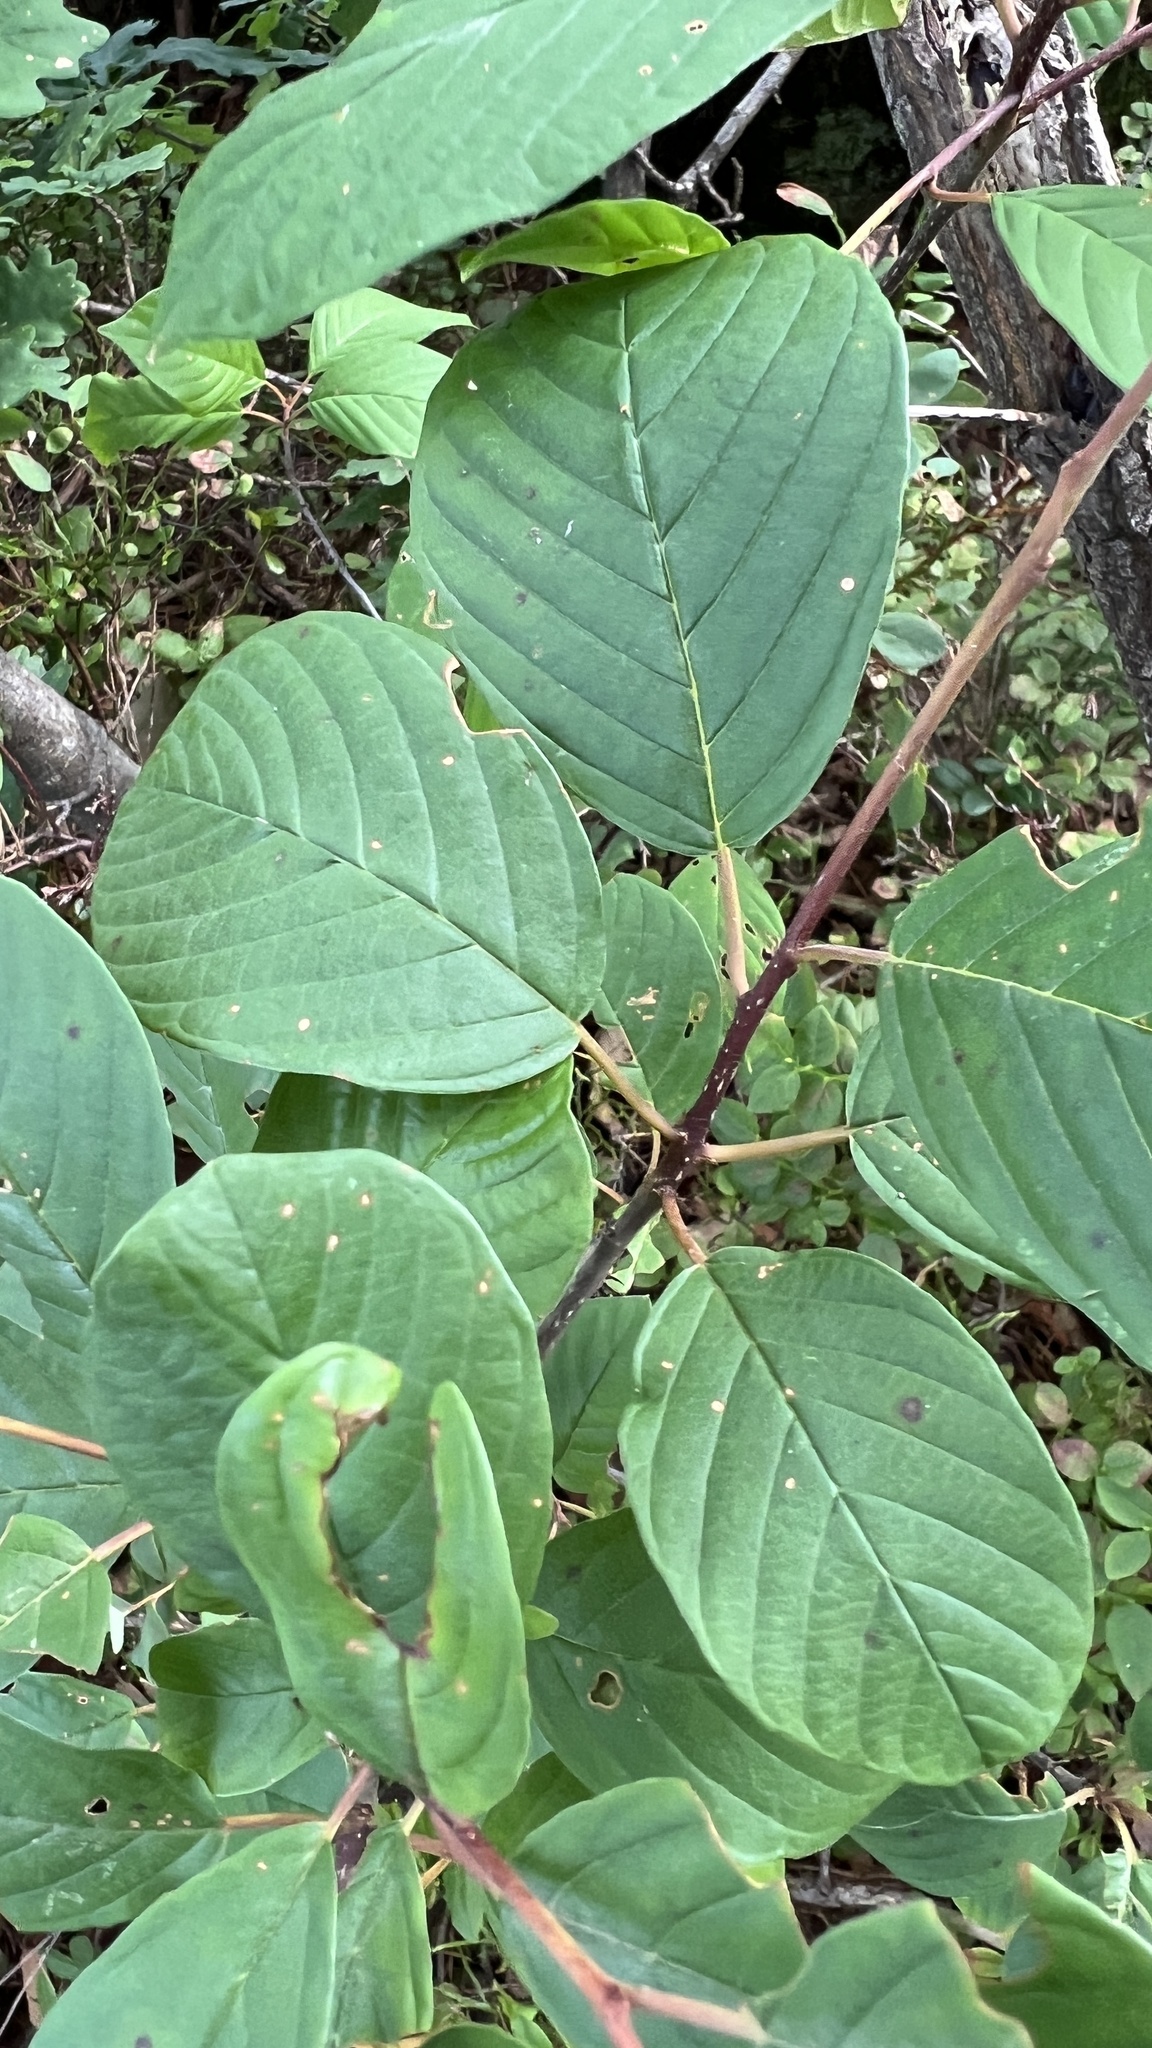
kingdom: Plantae
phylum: Tracheophyta
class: Magnoliopsida
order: Rosales
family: Rhamnaceae
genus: Frangula
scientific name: Frangula alnus
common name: Alder buckthorn
